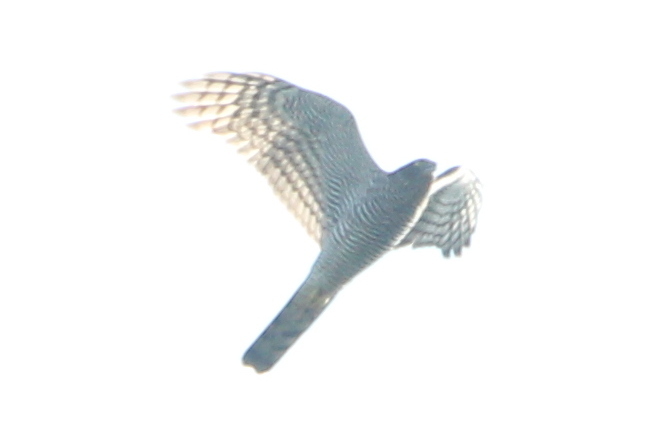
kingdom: Animalia
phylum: Chordata
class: Aves
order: Accipitriformes
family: Accipitridae
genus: Accipiter
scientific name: Accipiter nisus
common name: Eurasian sparrowhawk
